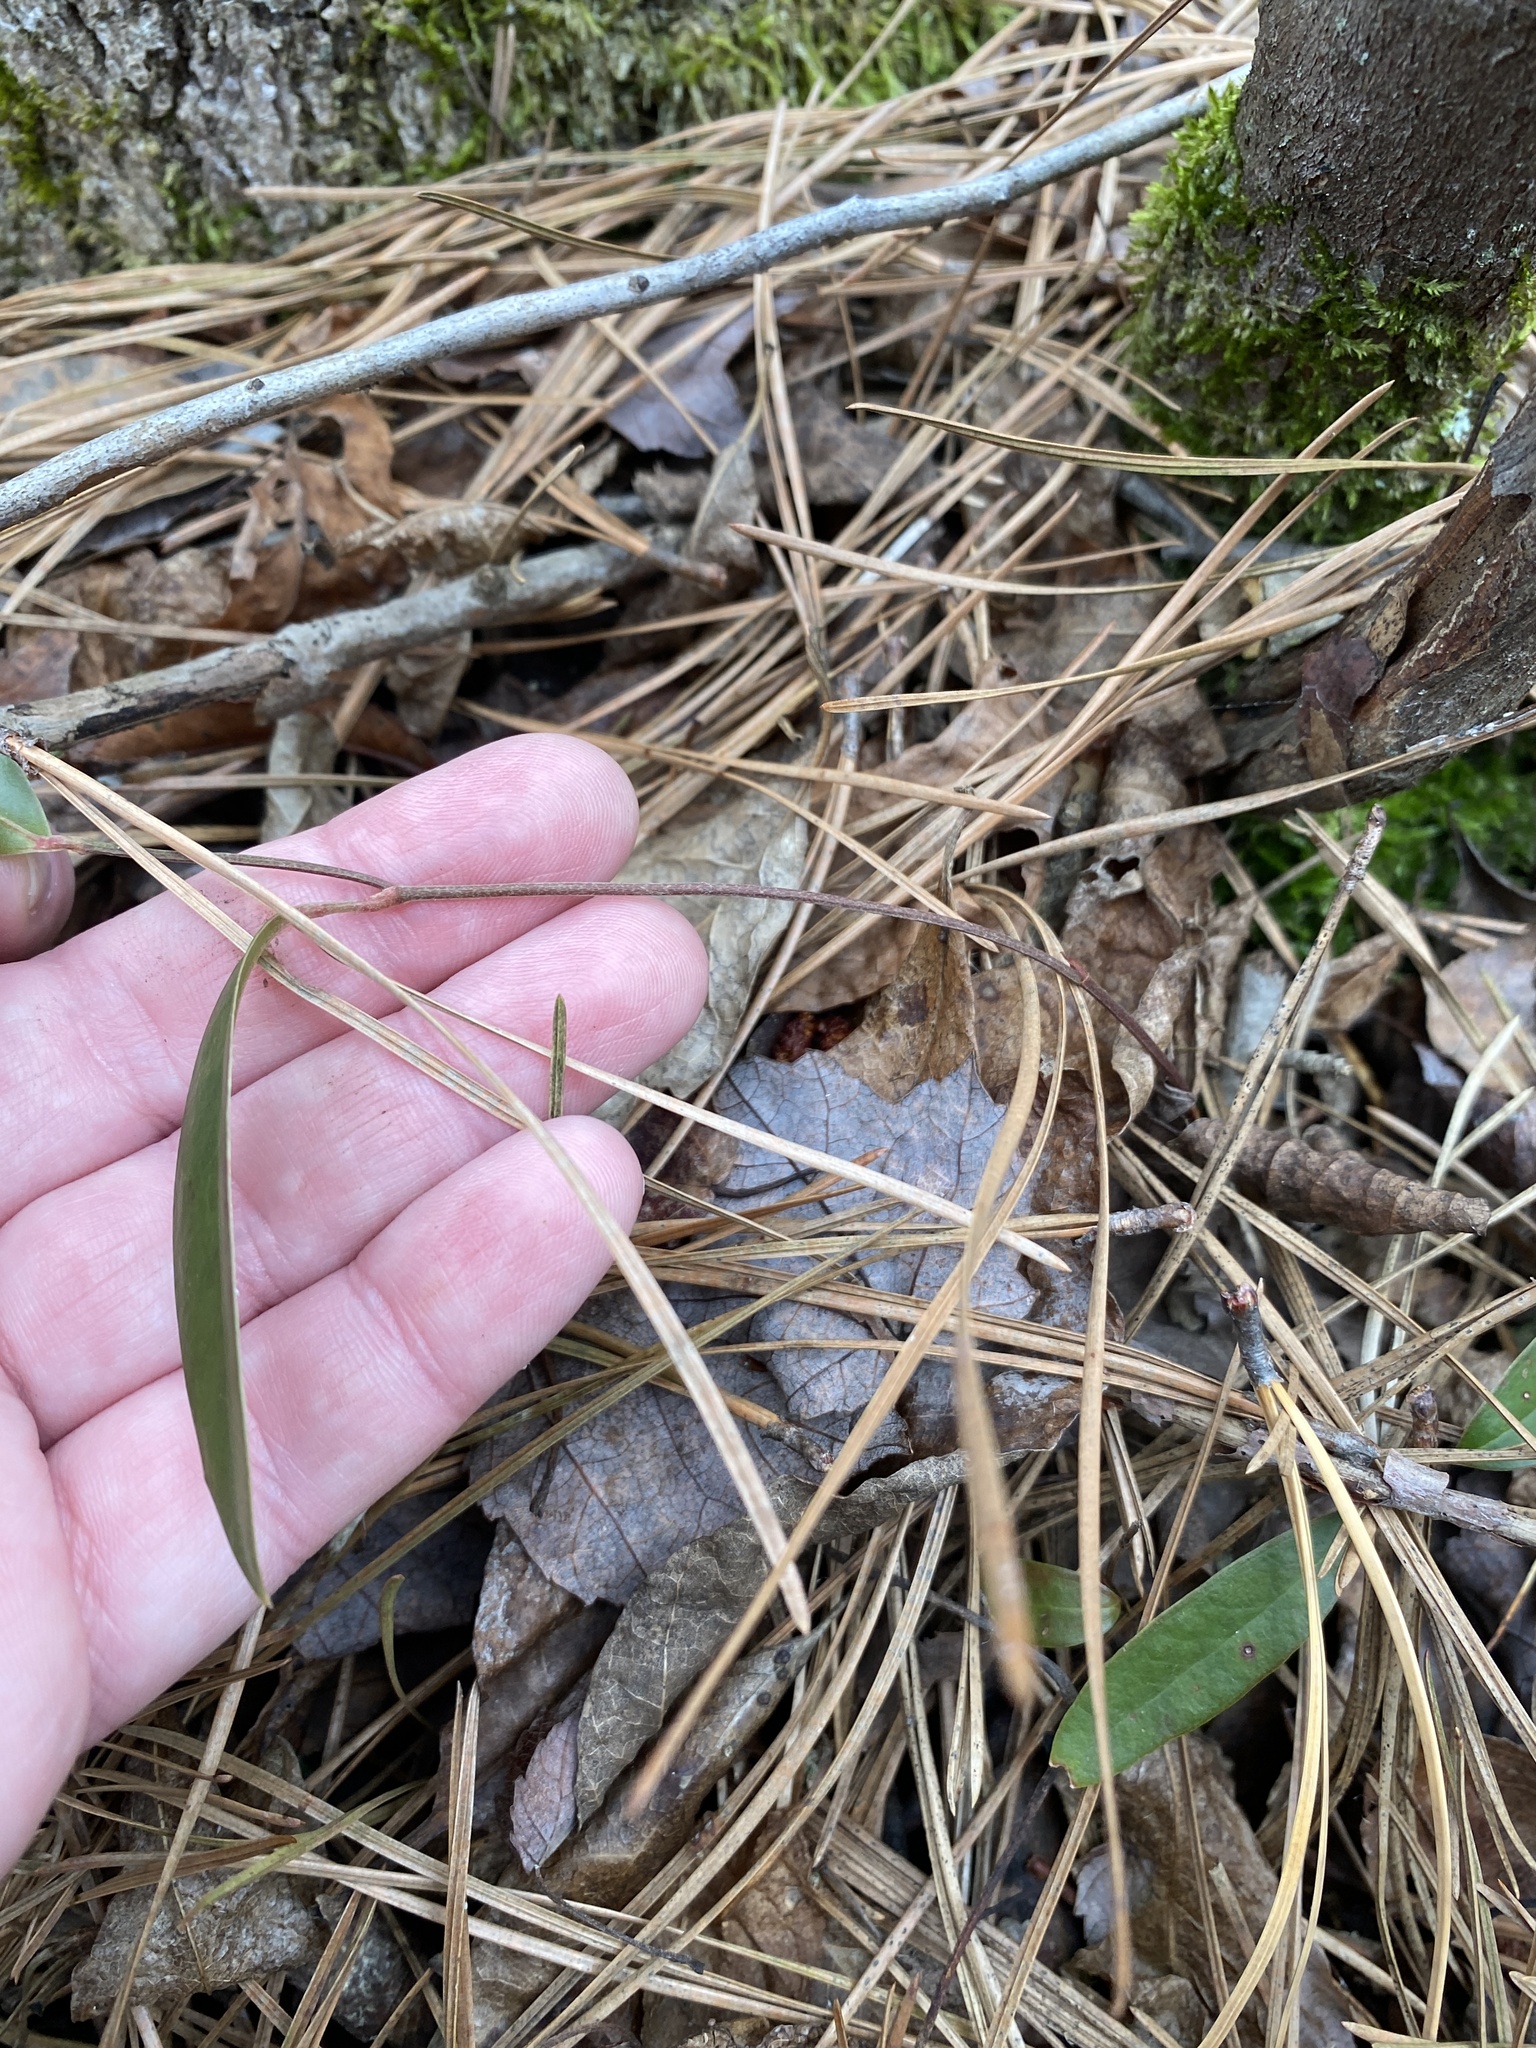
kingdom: Plantae
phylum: Tracheophyta
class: Liliopsida
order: Liliales
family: Smilacaceae
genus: Smilax
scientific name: Smilax laurifolia
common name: Bamboovine
